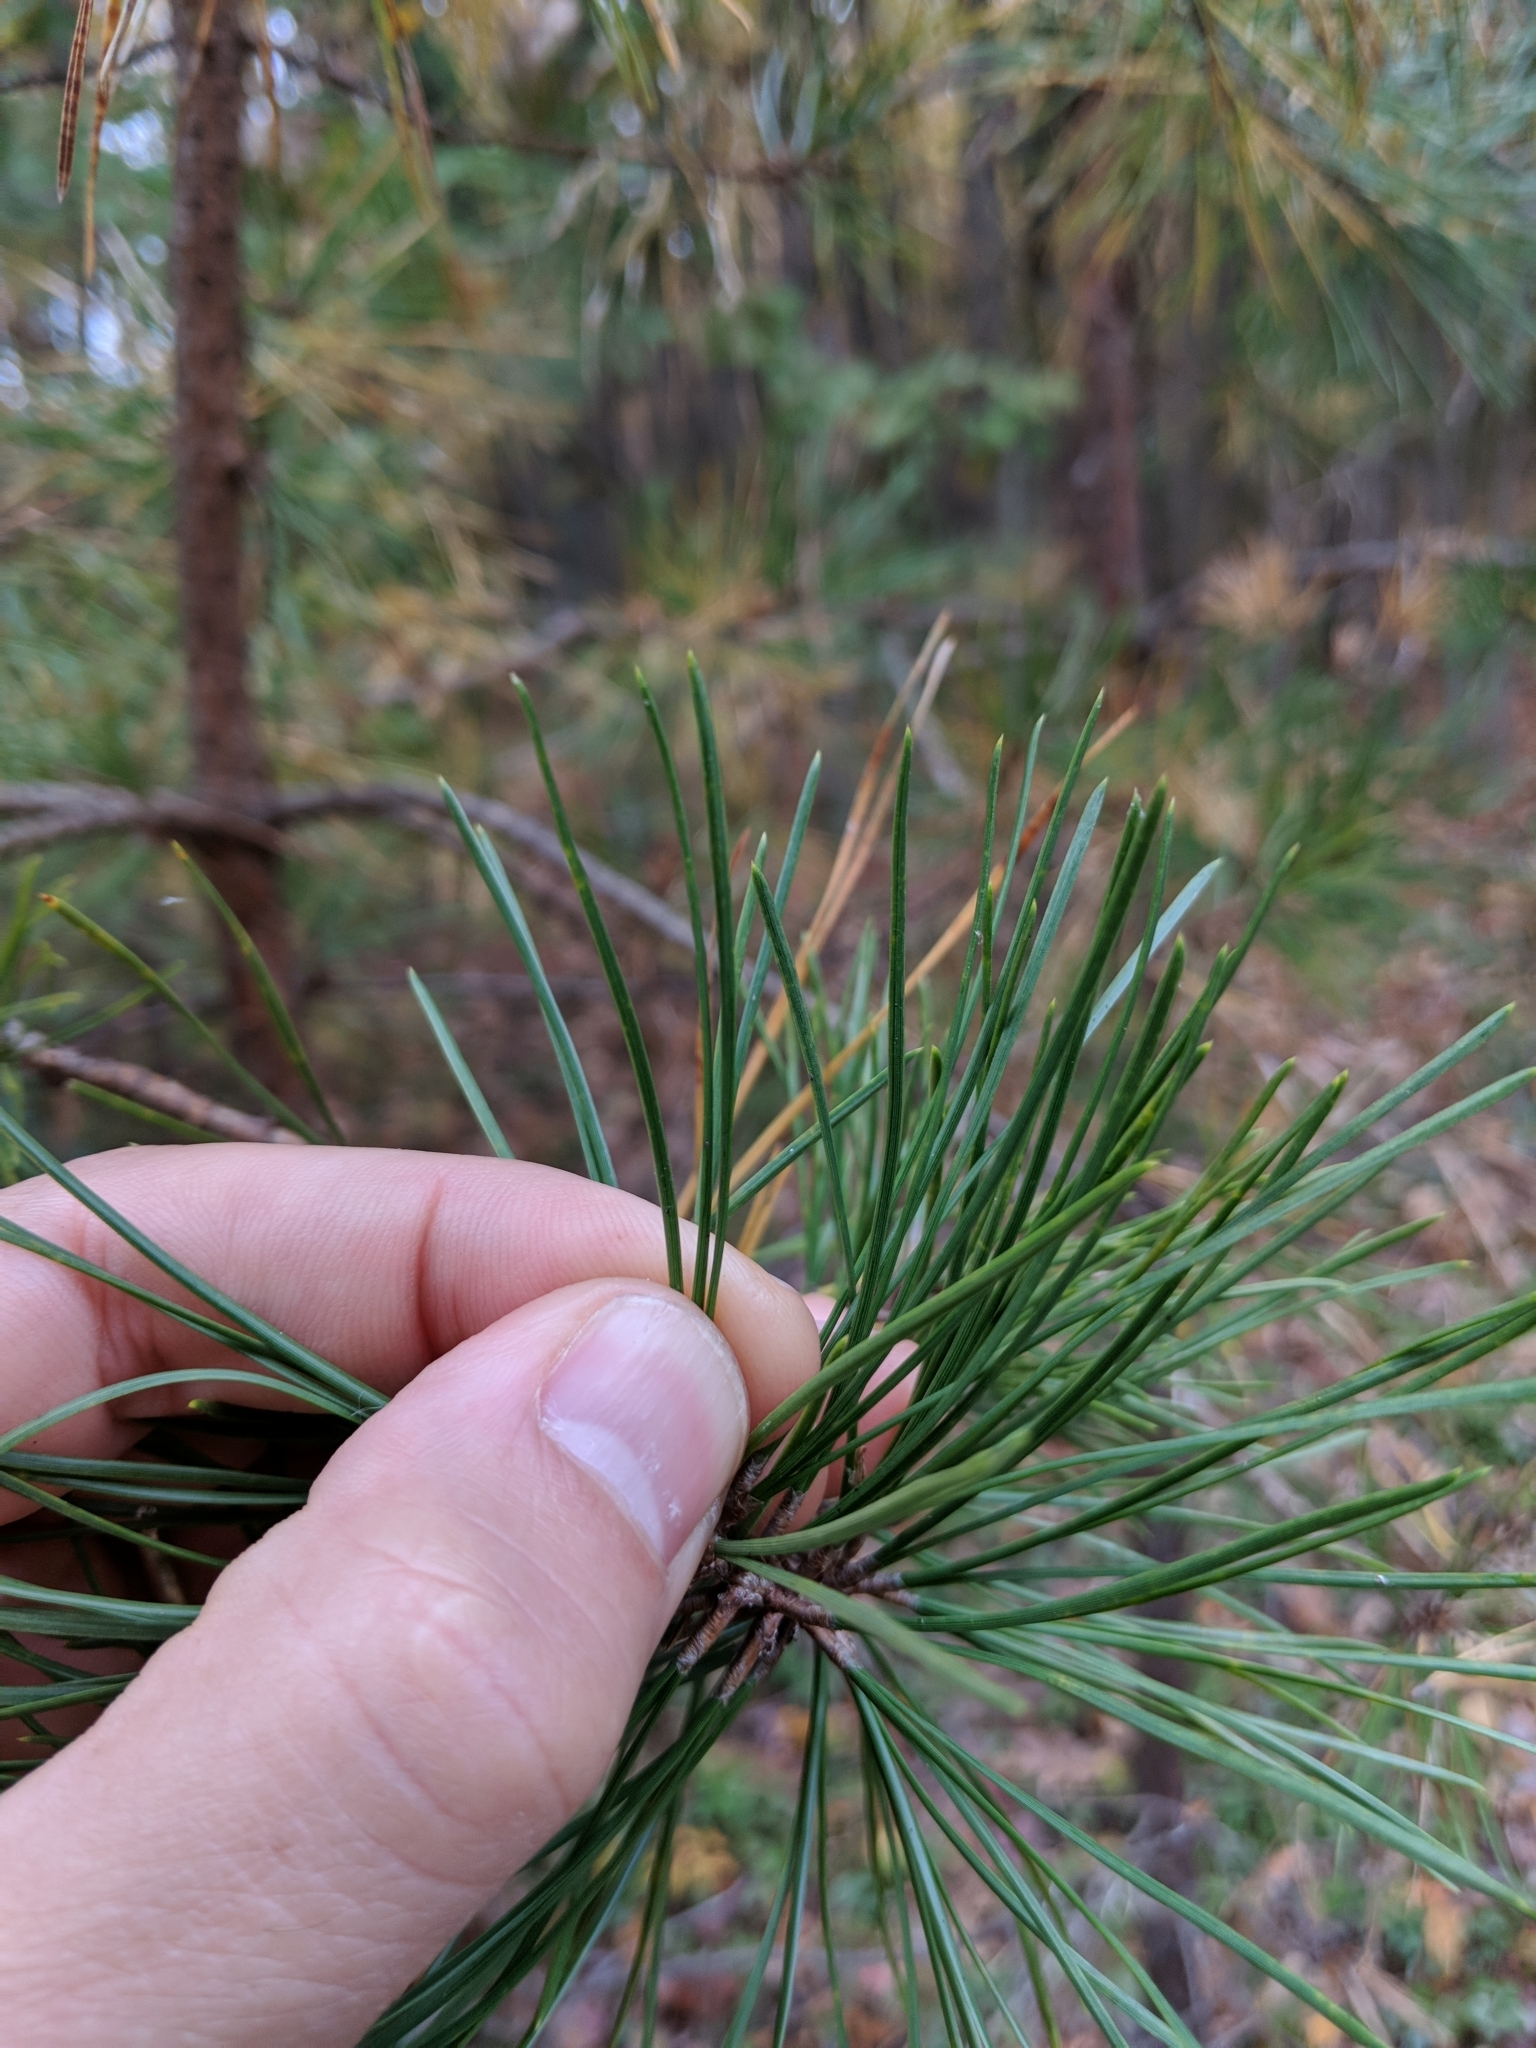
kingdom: Plantae
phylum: Tracheophyta
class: Pinopsida
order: Pinales
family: Pinaceae
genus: Pinus
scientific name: Pinus rigida
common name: Pitch pine
